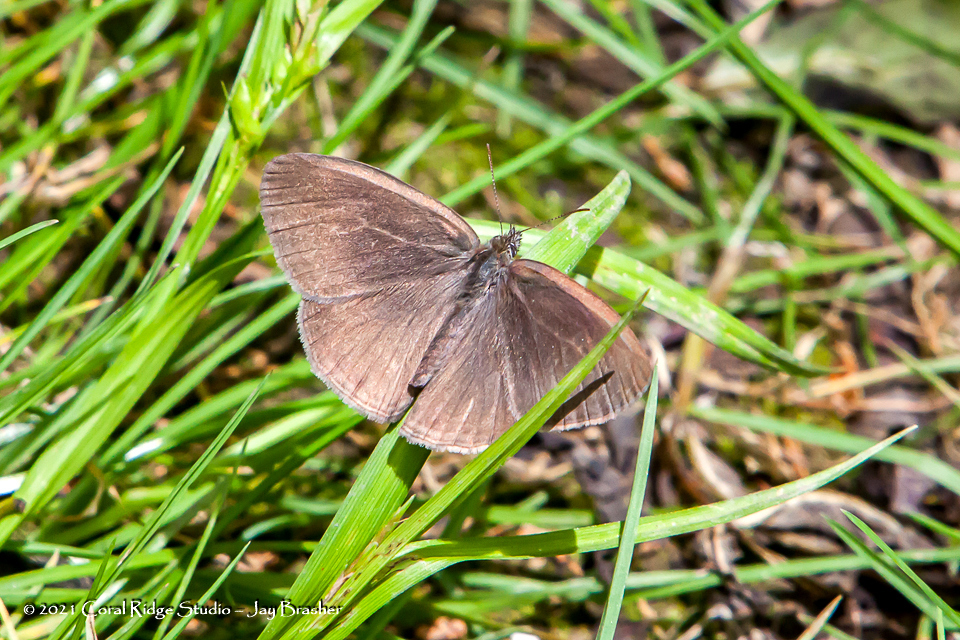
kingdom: Animalia
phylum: Arthropoda
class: Insecta
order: Lepidoptera
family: Nymphalidae
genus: Hermeuptychia
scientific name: Hermeuptychia hermes
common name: Hermes satyr
